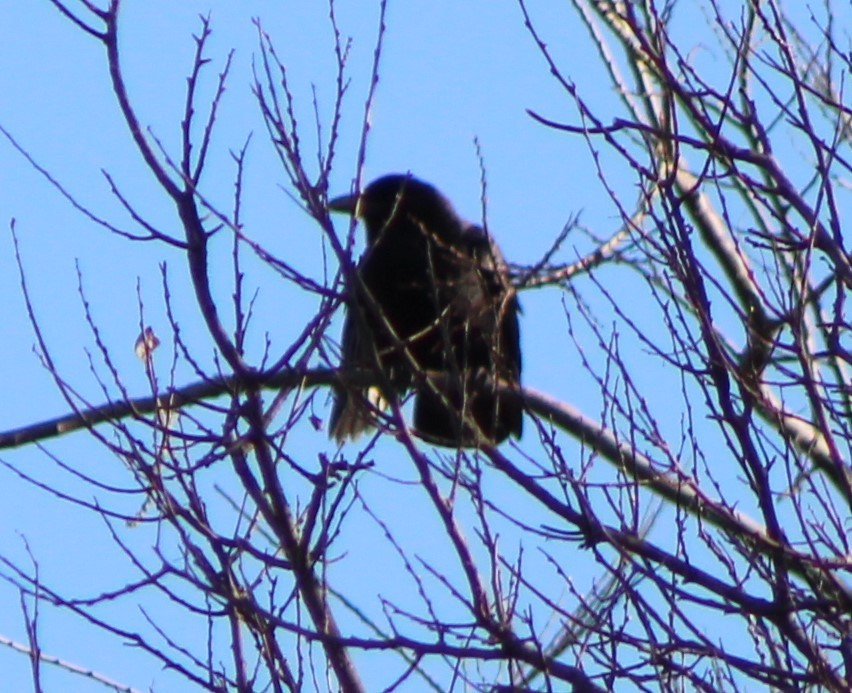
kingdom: Animalia
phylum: Chordata
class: Aves
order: Passeriformes
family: Corvidae
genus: Corvus
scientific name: Corvus brachyrhynchos
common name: American crow
